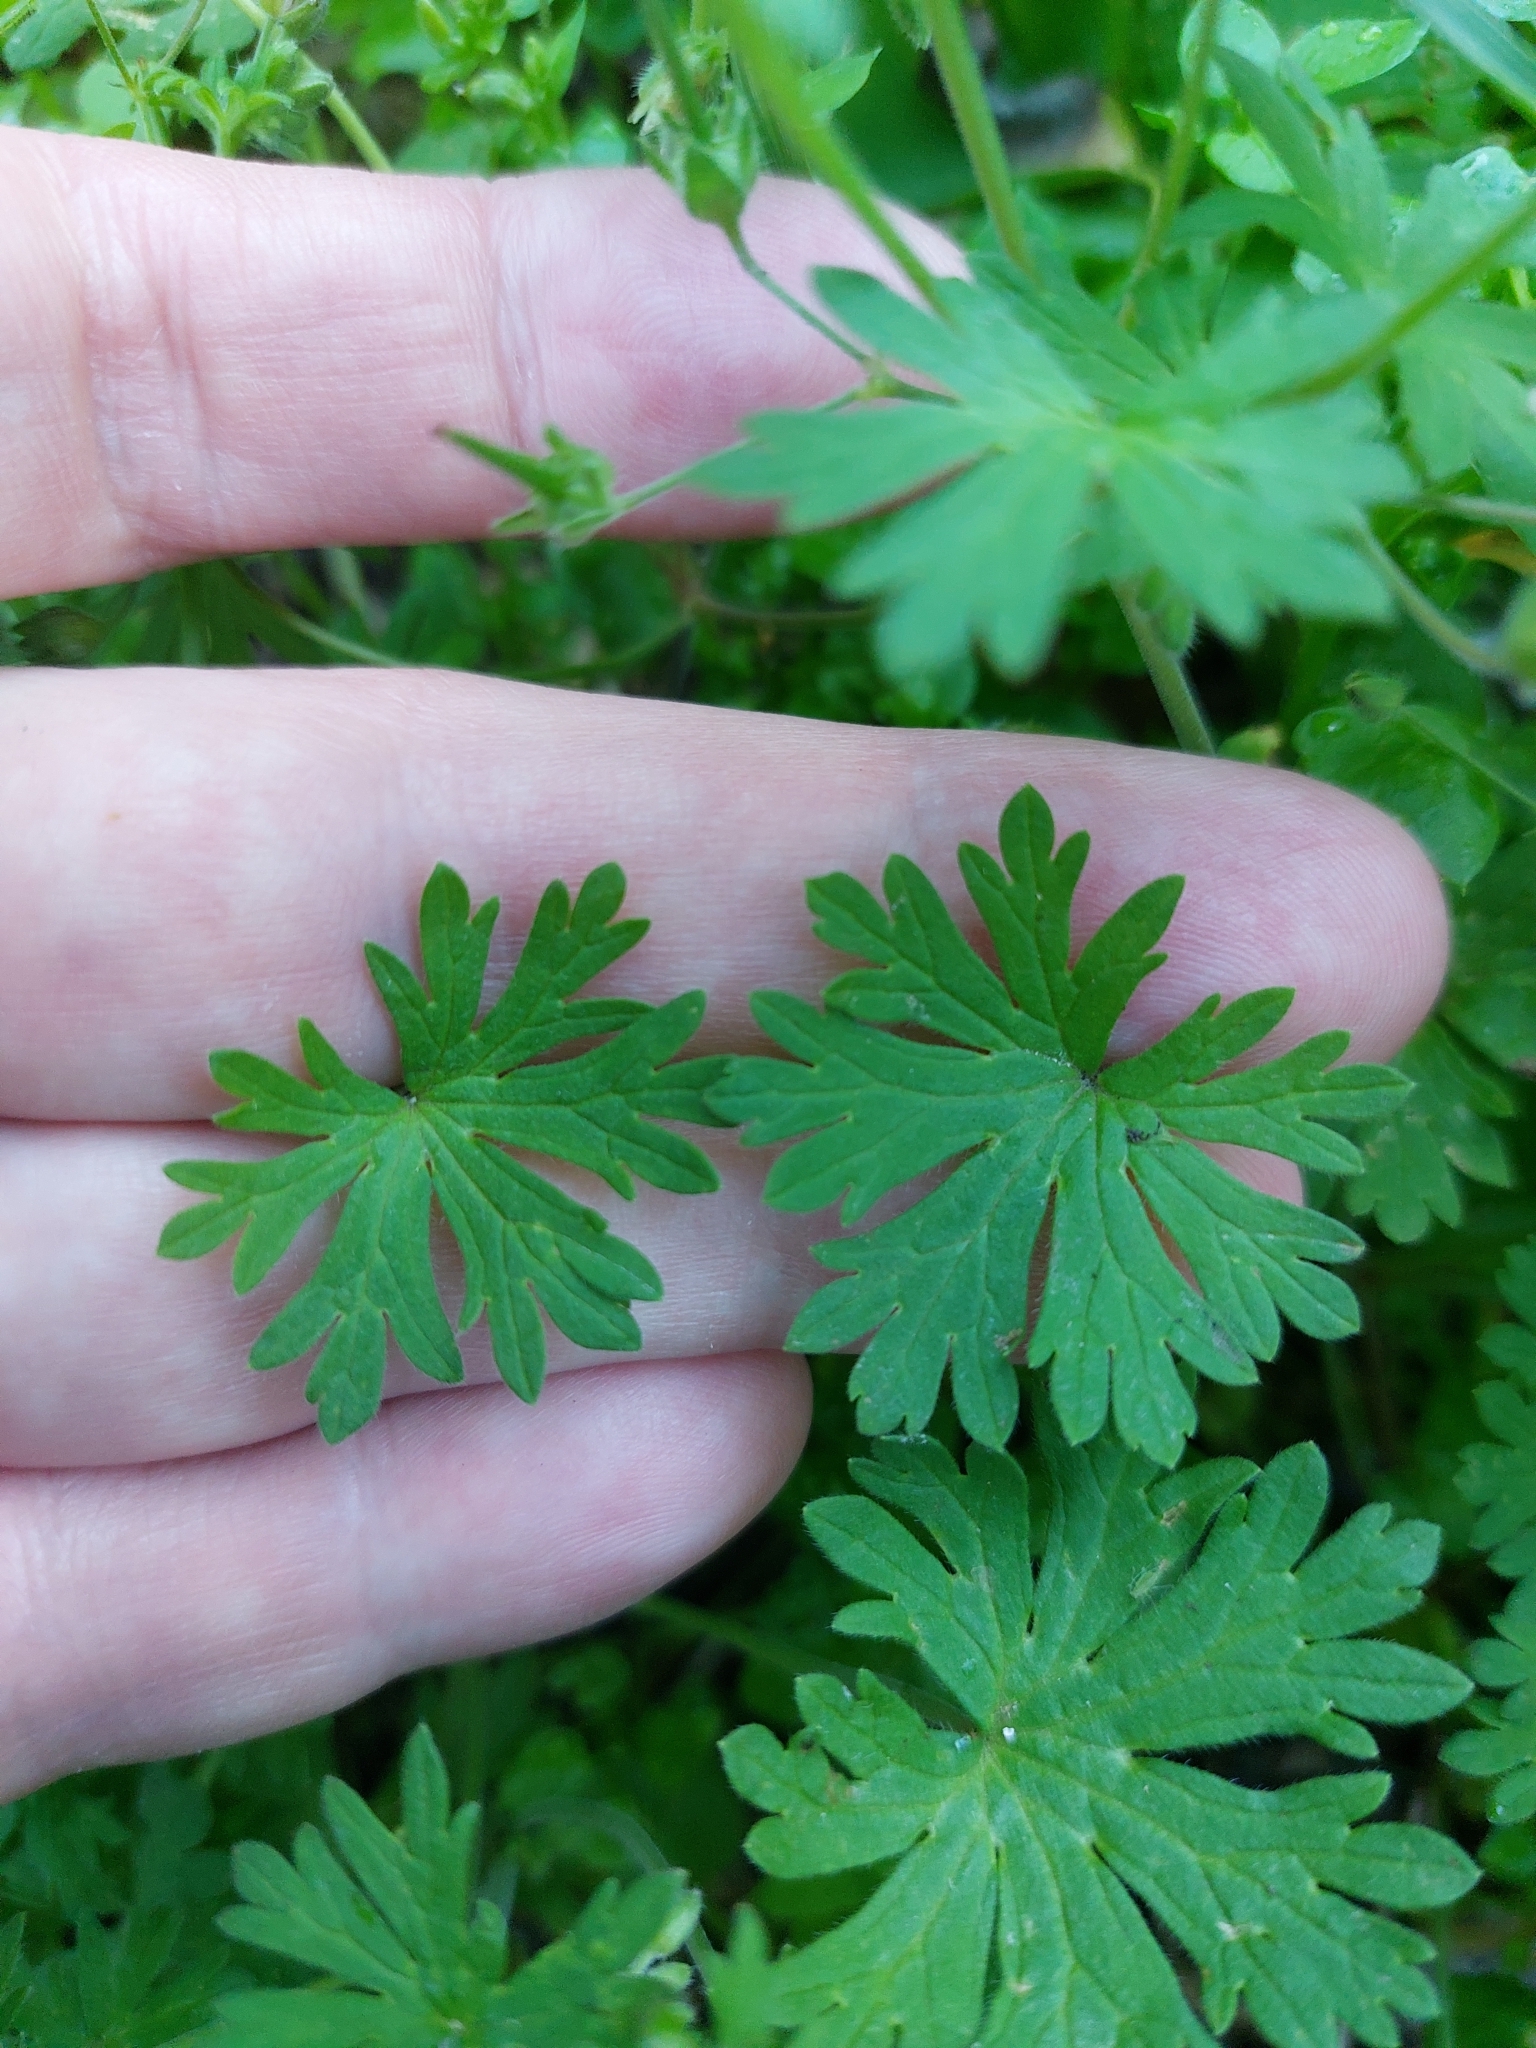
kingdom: Plantae
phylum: Tracheophyta
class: Magnoliopsida
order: Geraniales
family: Geraniaceae
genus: Geranium
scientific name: Geranium pusillum
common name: Small geranium
